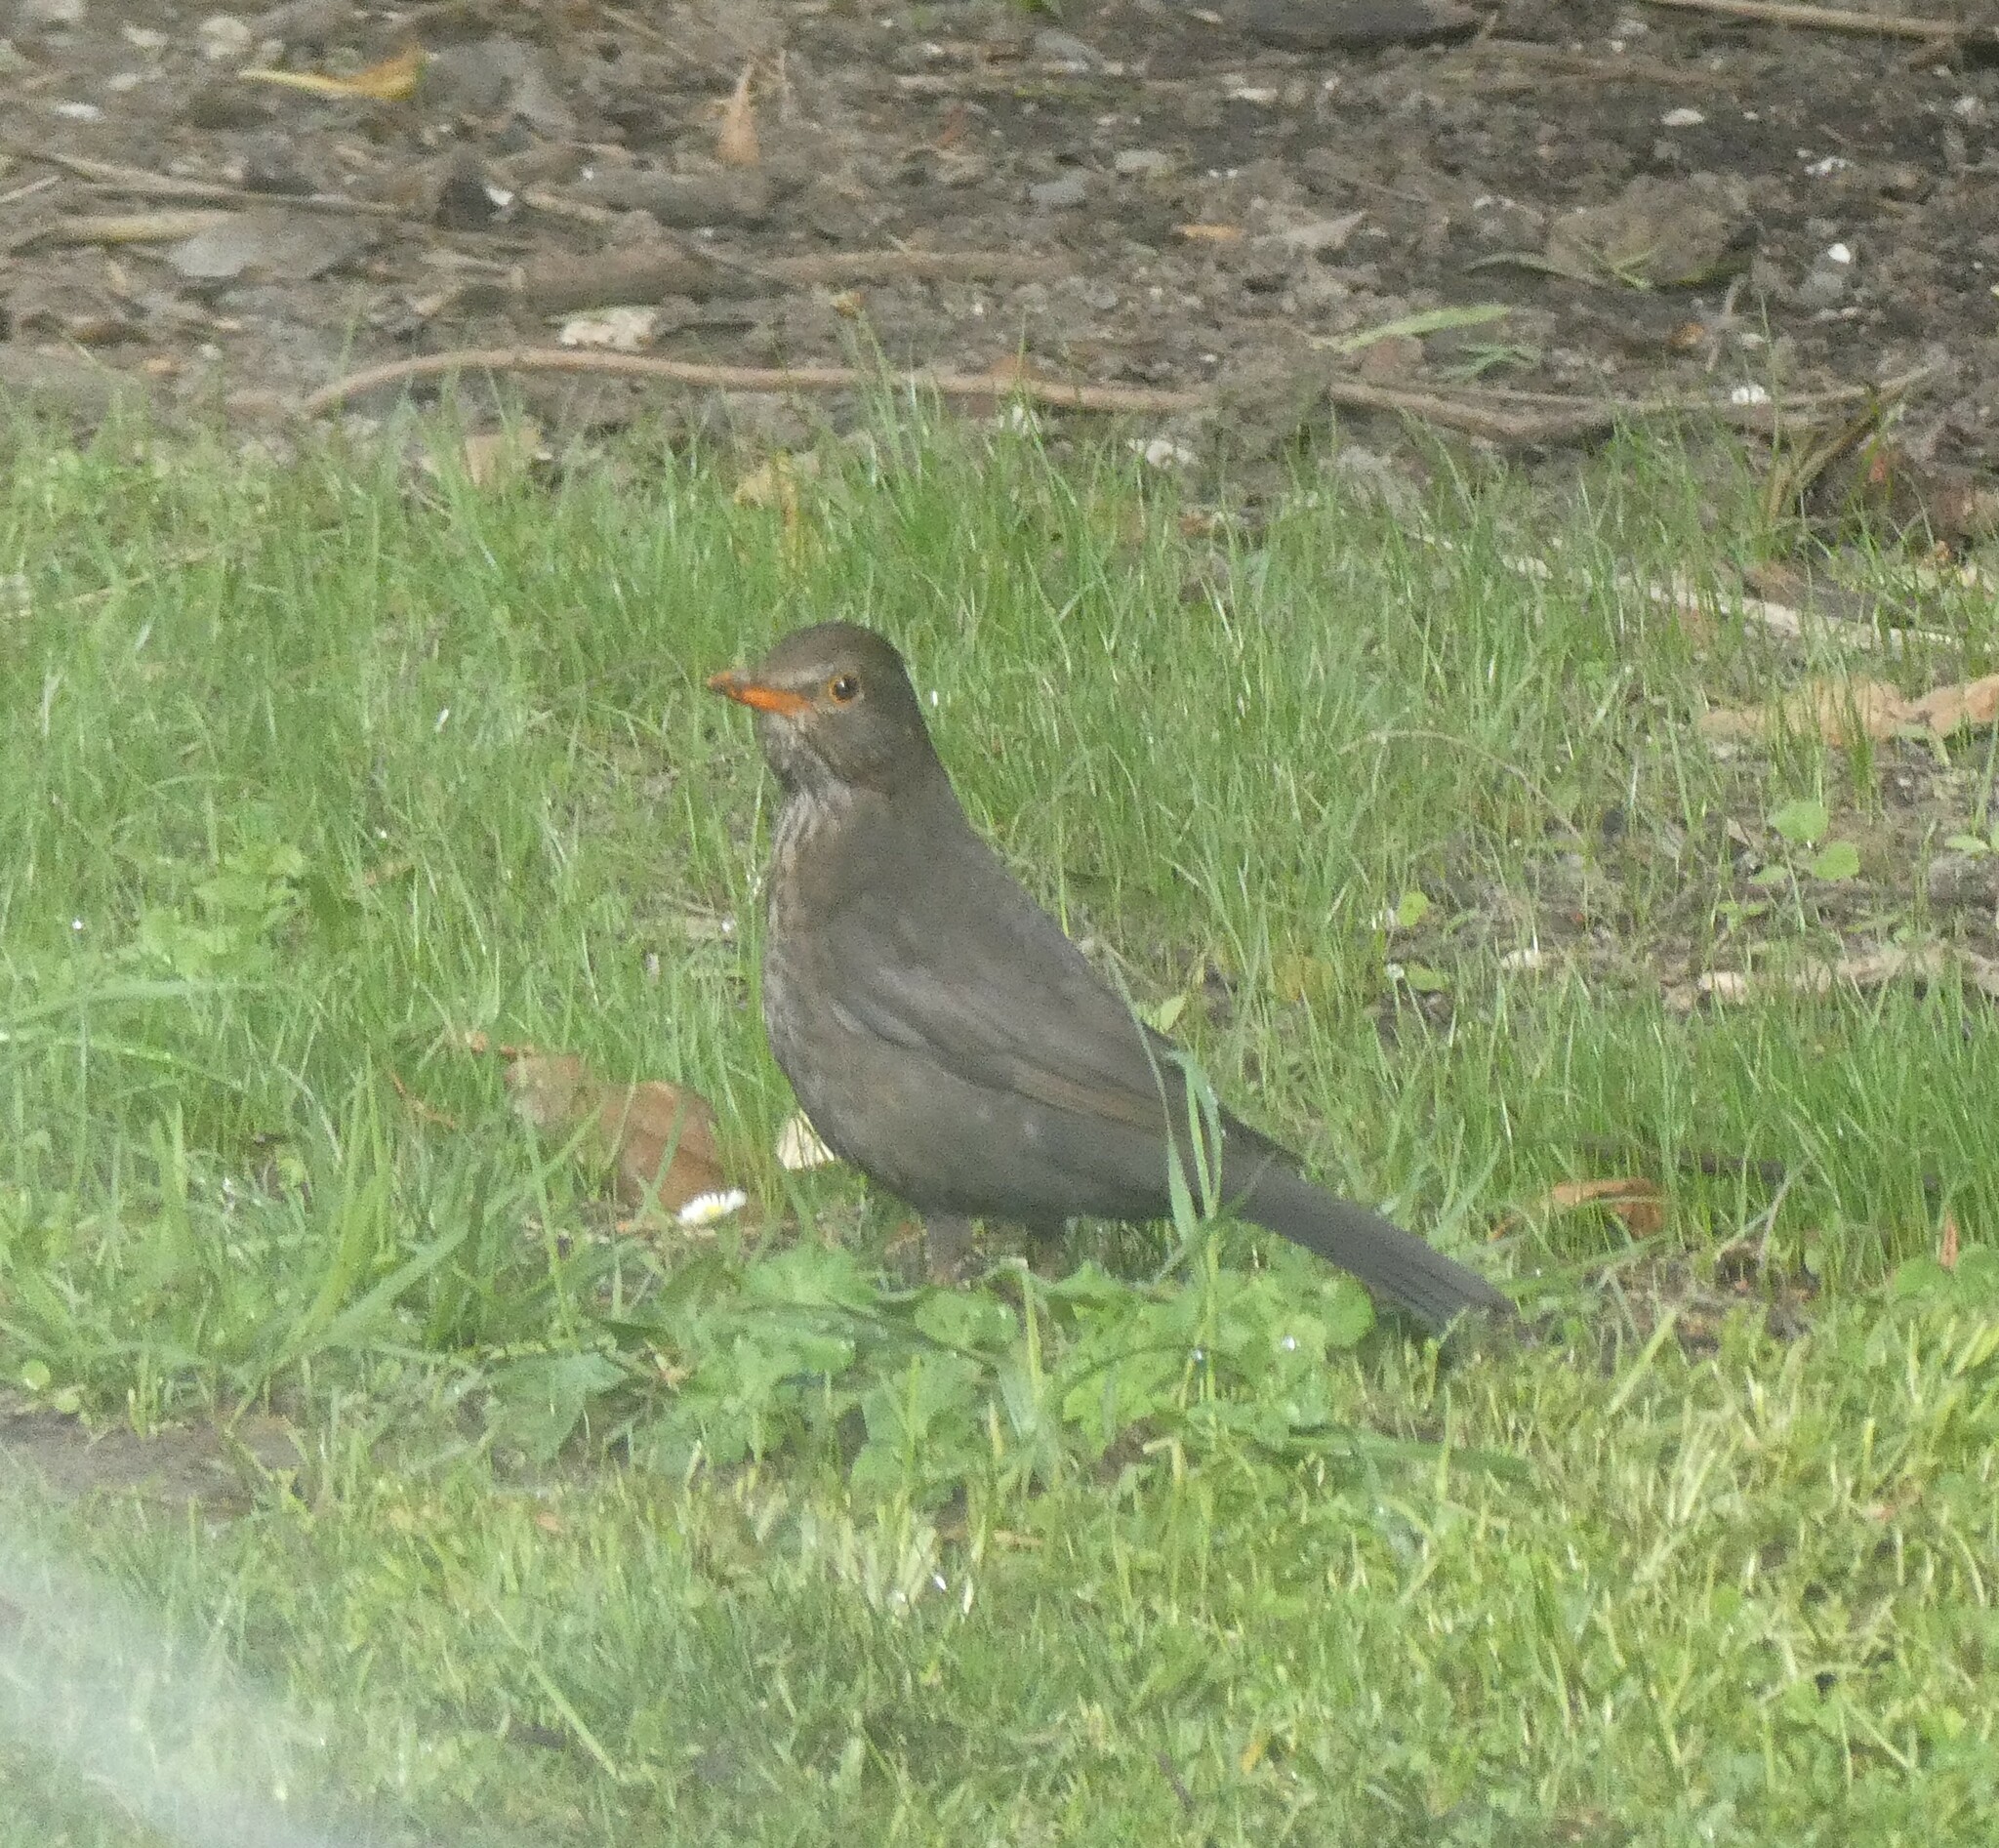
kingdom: Animalia
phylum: Chordata
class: Aves
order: Passeriformes
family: Turdidae
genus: Turdus
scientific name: Turdus merula
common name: Common blackbird
